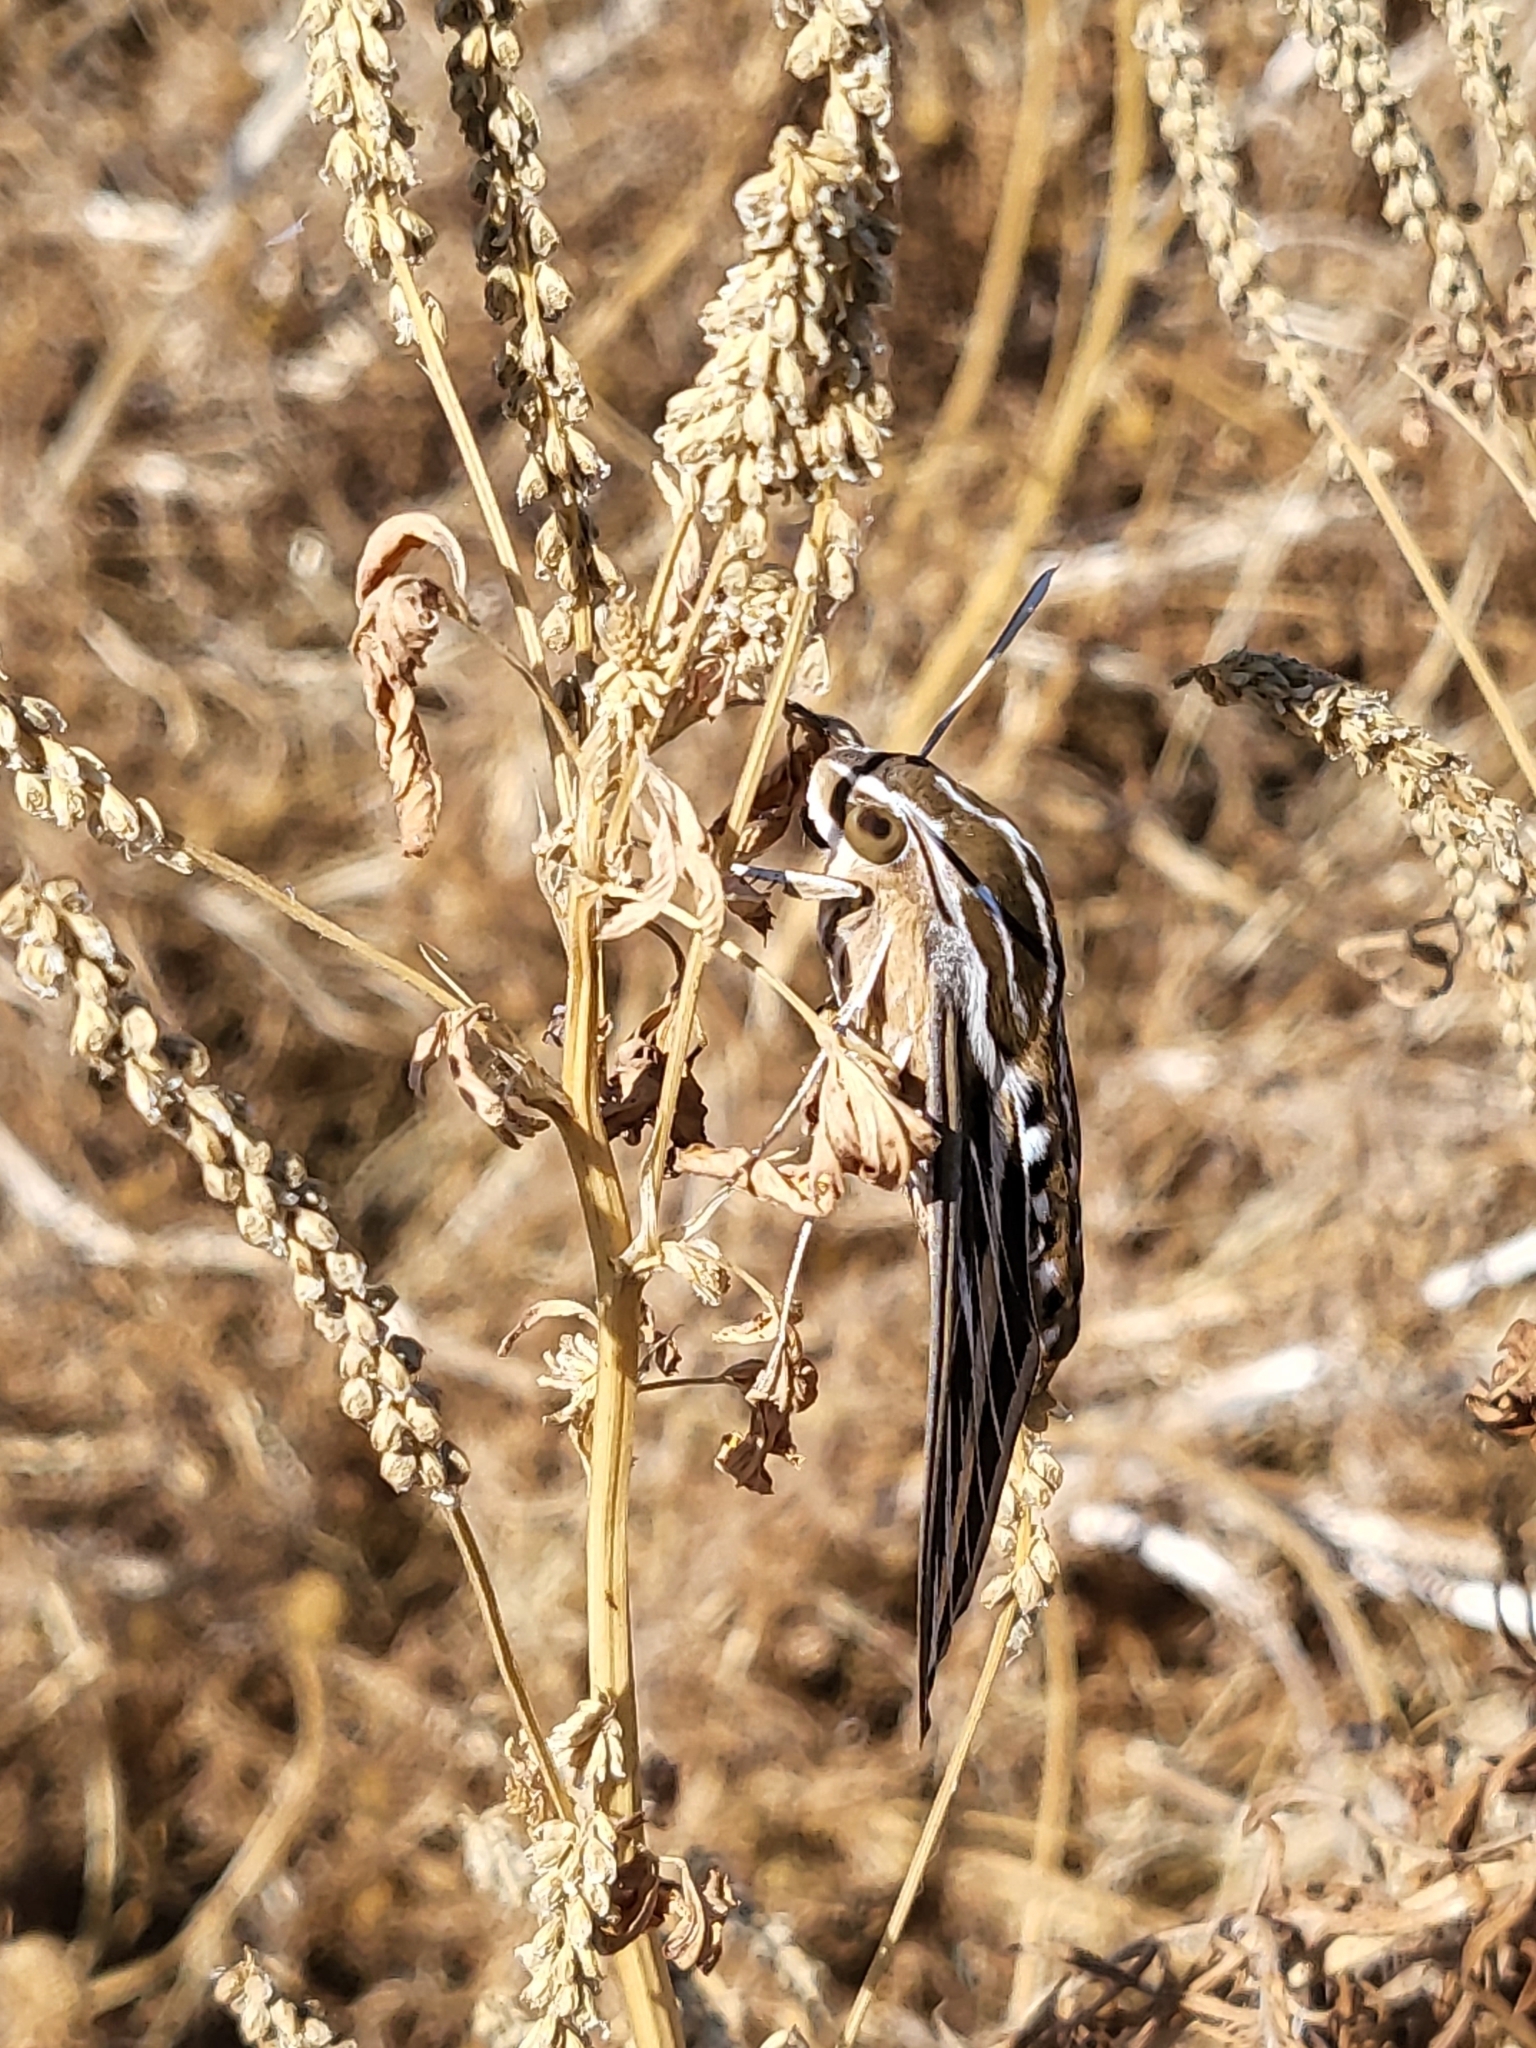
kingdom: Animalia
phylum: Arthropoda
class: Insecta
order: Lepidoptera
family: Sphingidae
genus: Hyles
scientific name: Hyles lineata
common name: White-lined sphinx
